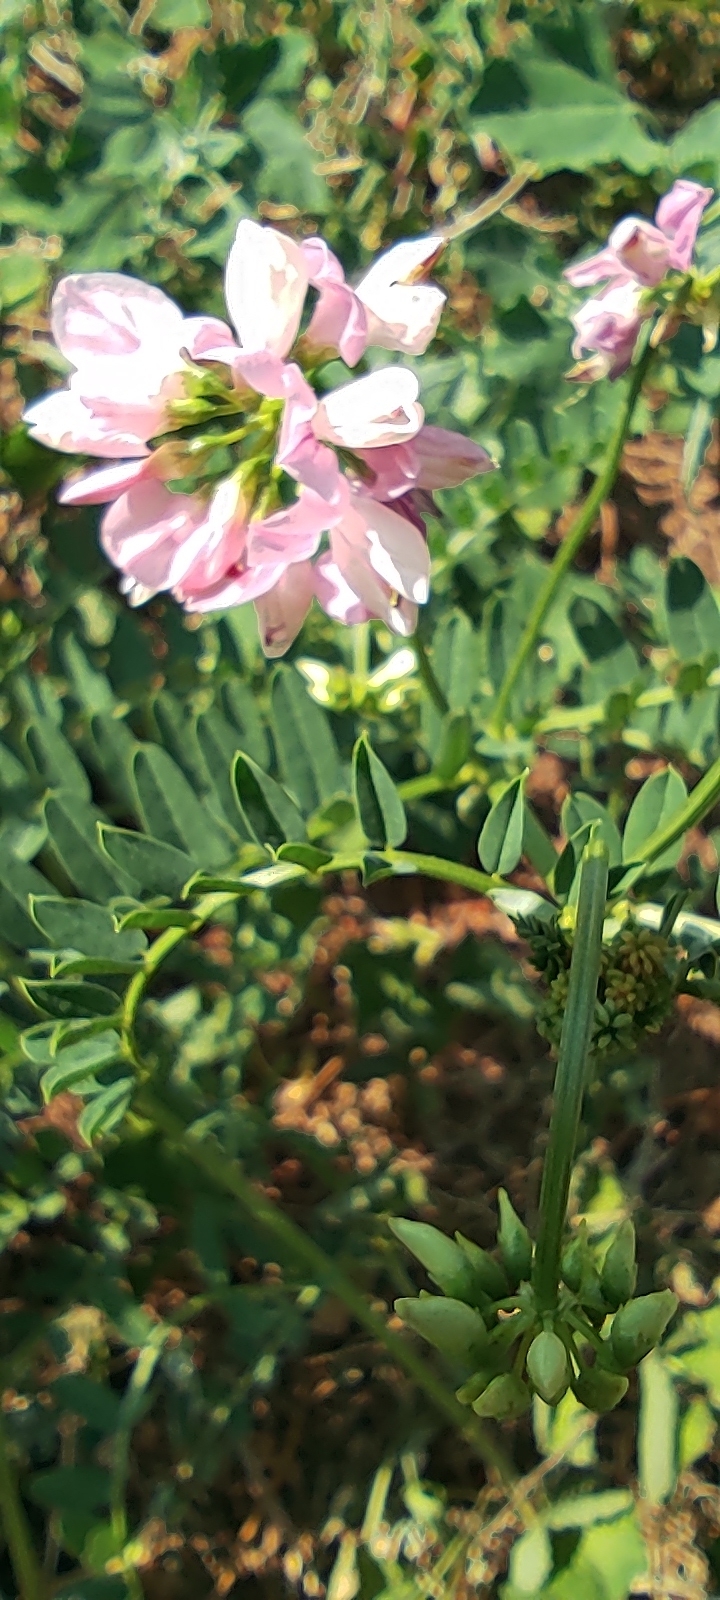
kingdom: Plantae
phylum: Tracheophyta
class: Magnoliopsida
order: Fabales
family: Fabaceae
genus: Coronilla
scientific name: Coronilla varia
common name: Crownvetch
